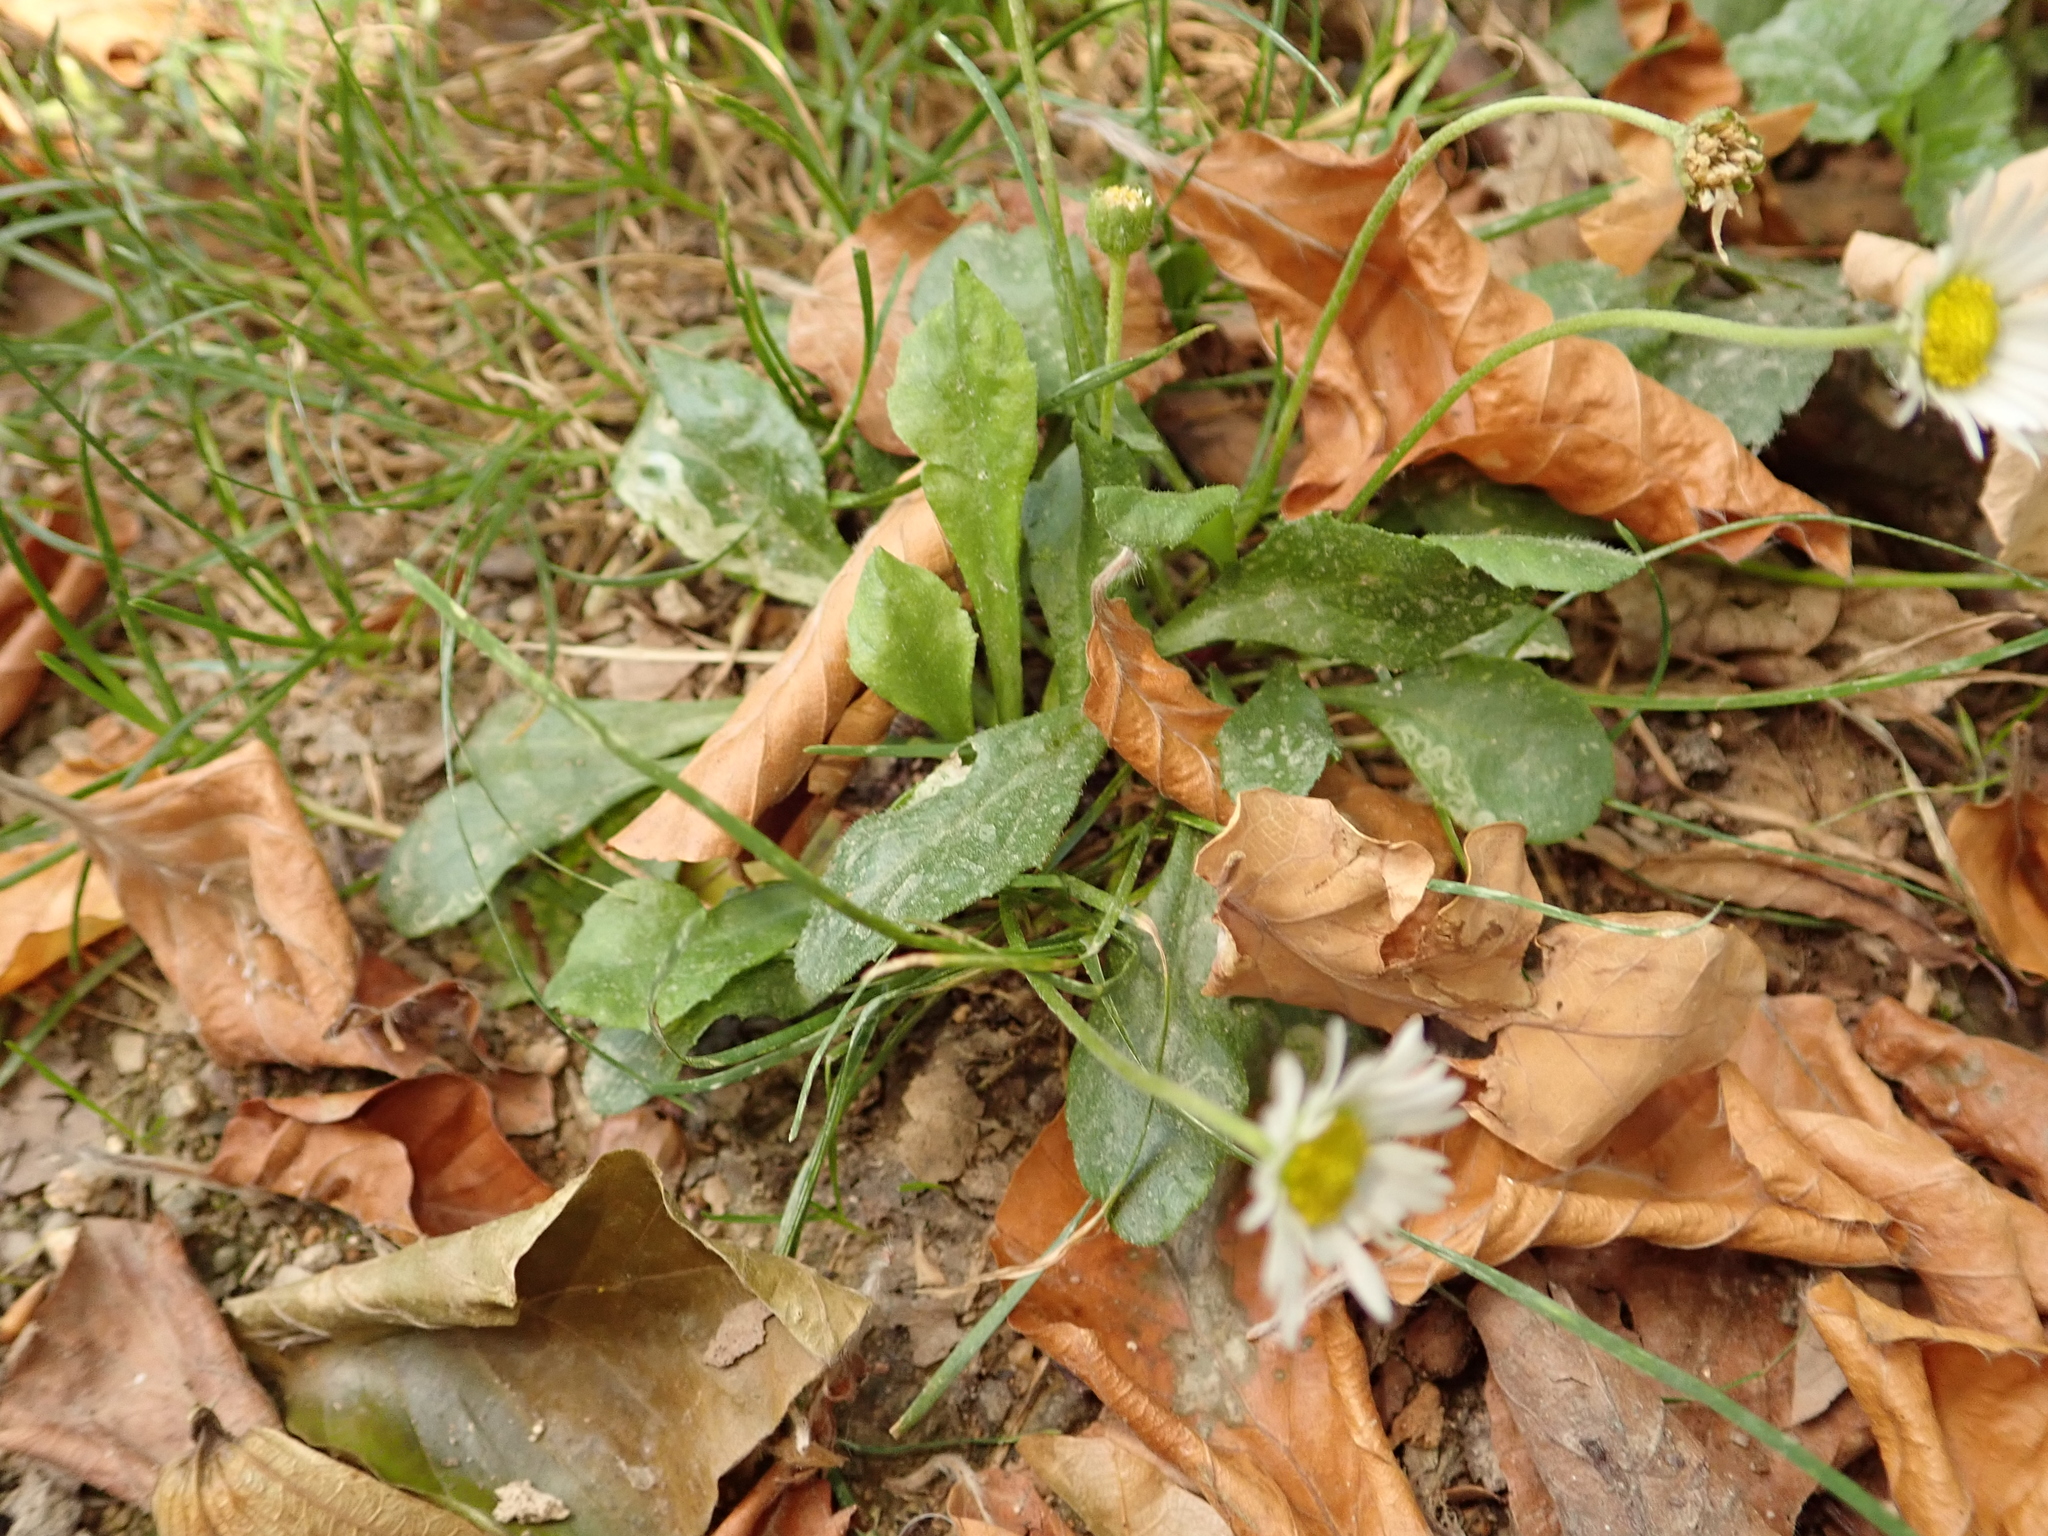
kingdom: Plantae
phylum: Tracheophyta
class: Magnoliopsida
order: Asterales
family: Asteraceae
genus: Bellis
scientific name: Bellis perennis
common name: Lawndaisy
